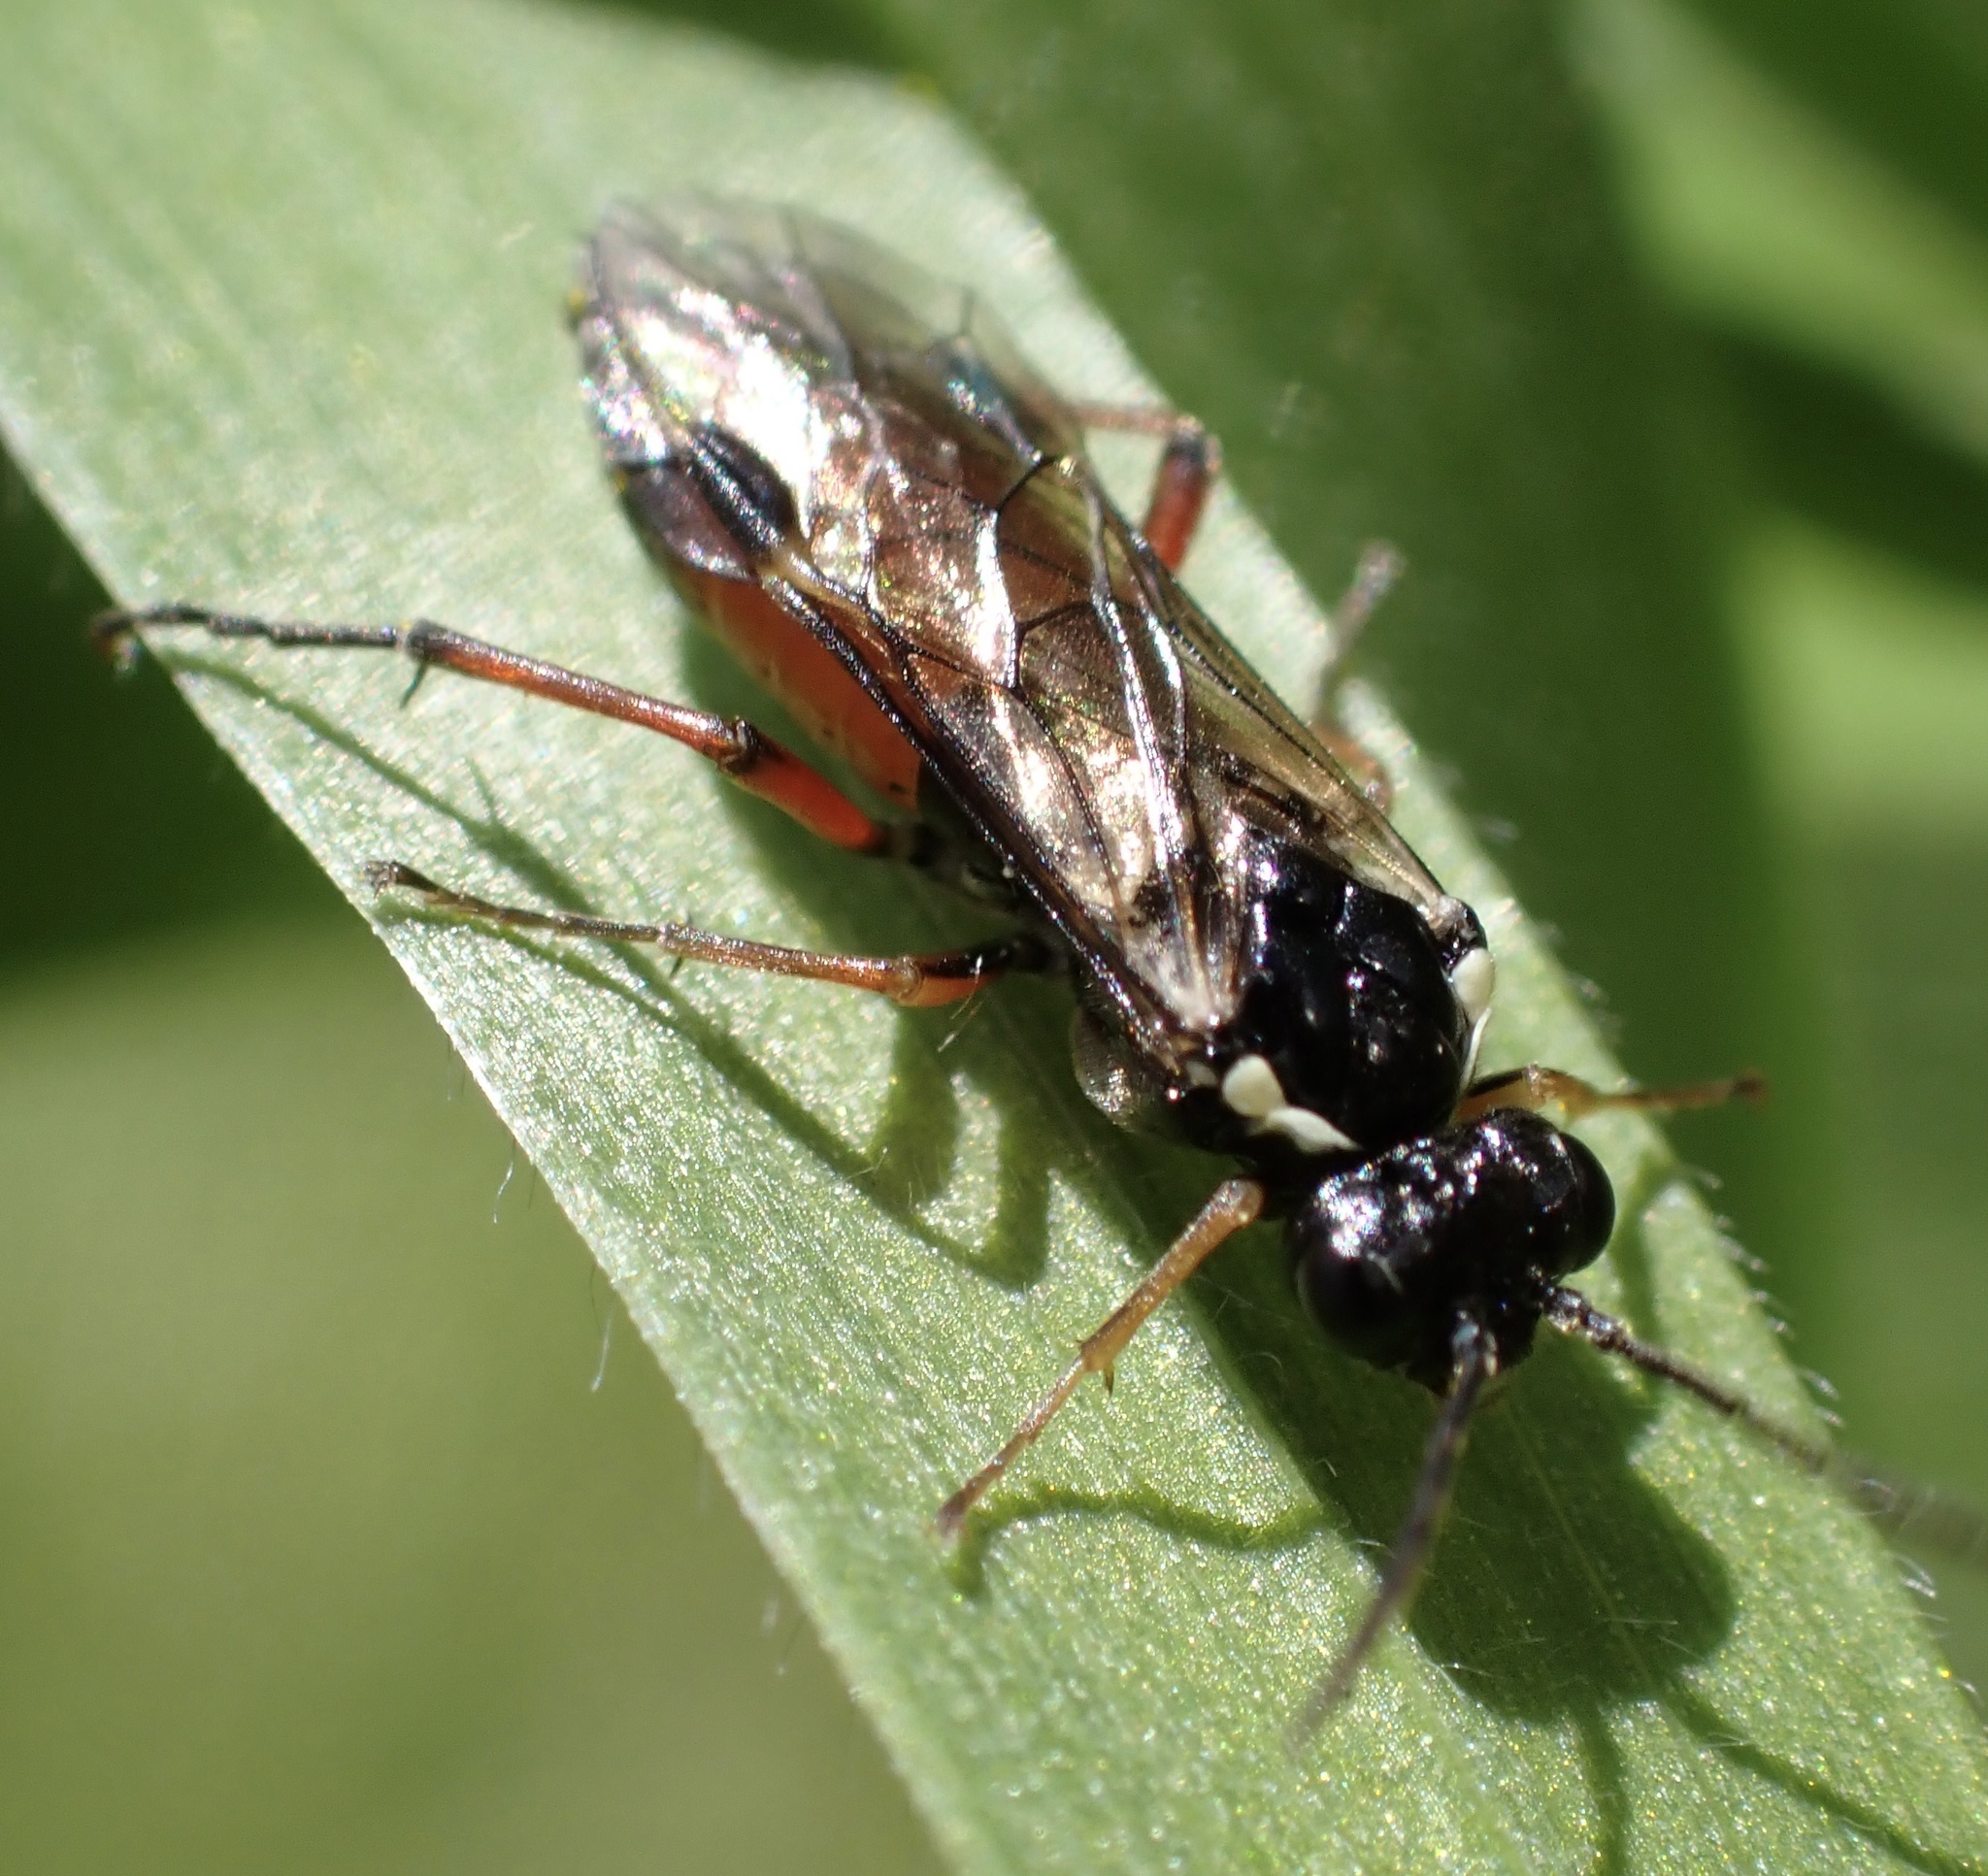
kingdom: Animalia
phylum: Arthropoda
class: Insecta
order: Hymenoptera
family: Tenthredinidae
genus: Aglaostigma
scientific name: Aglaostigma aucupariae
